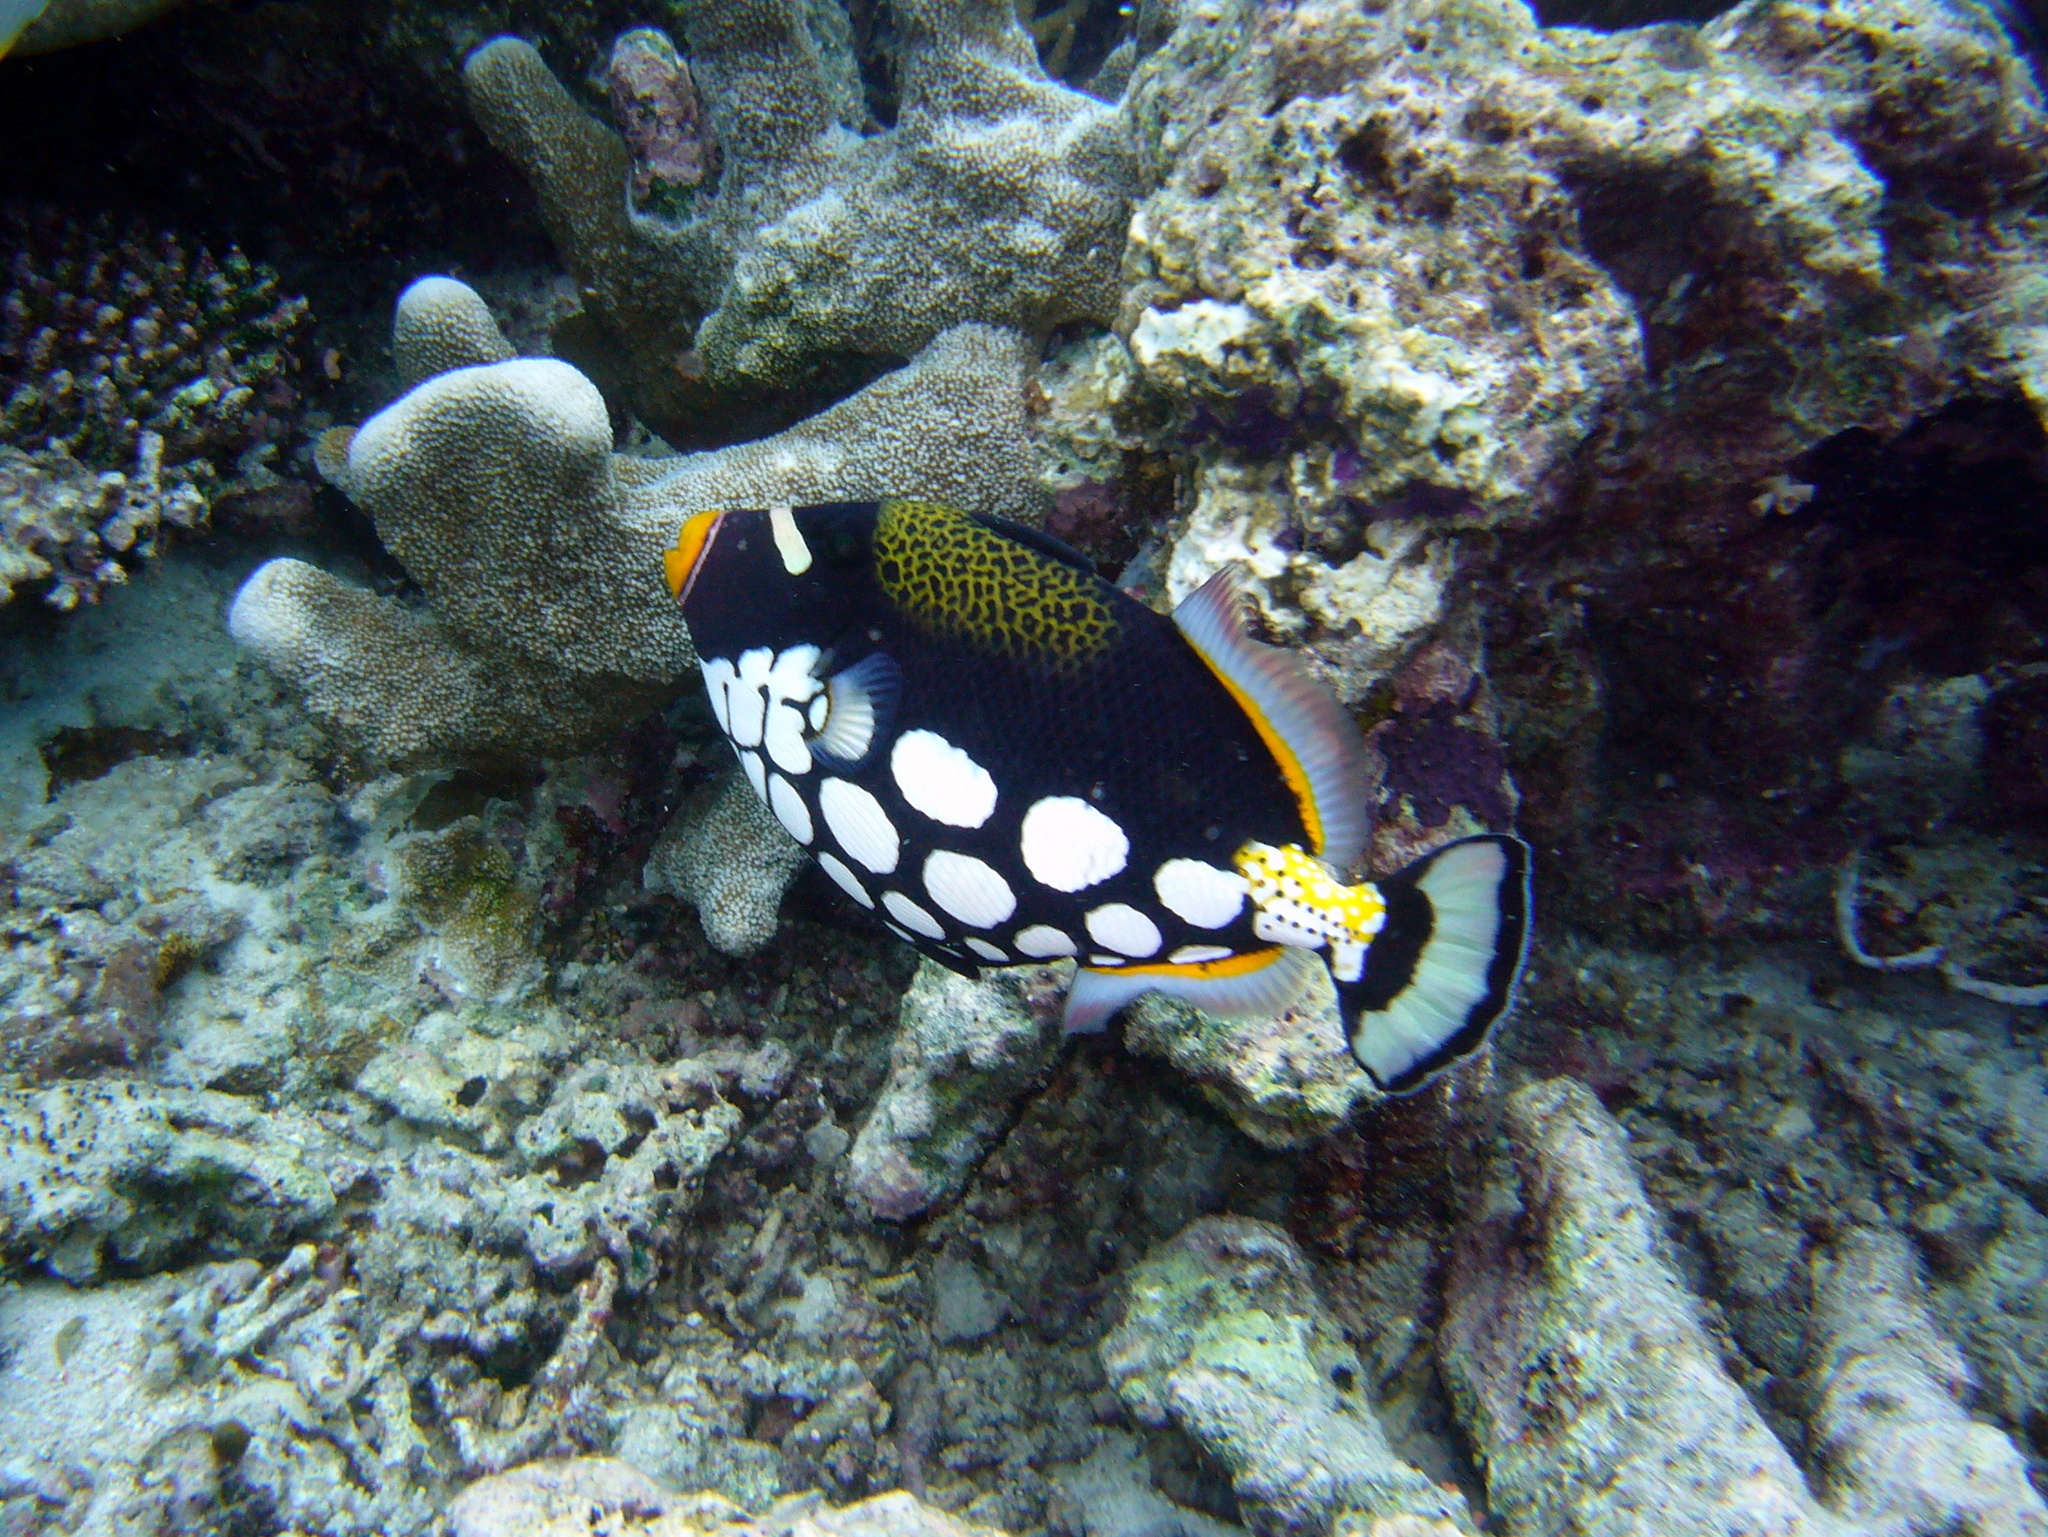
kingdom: Animalia
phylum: Chordata
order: Tetraodontiformes
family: Balistidae
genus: Balistoides
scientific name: Balistoides conspicillum
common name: Clown triggerfish
